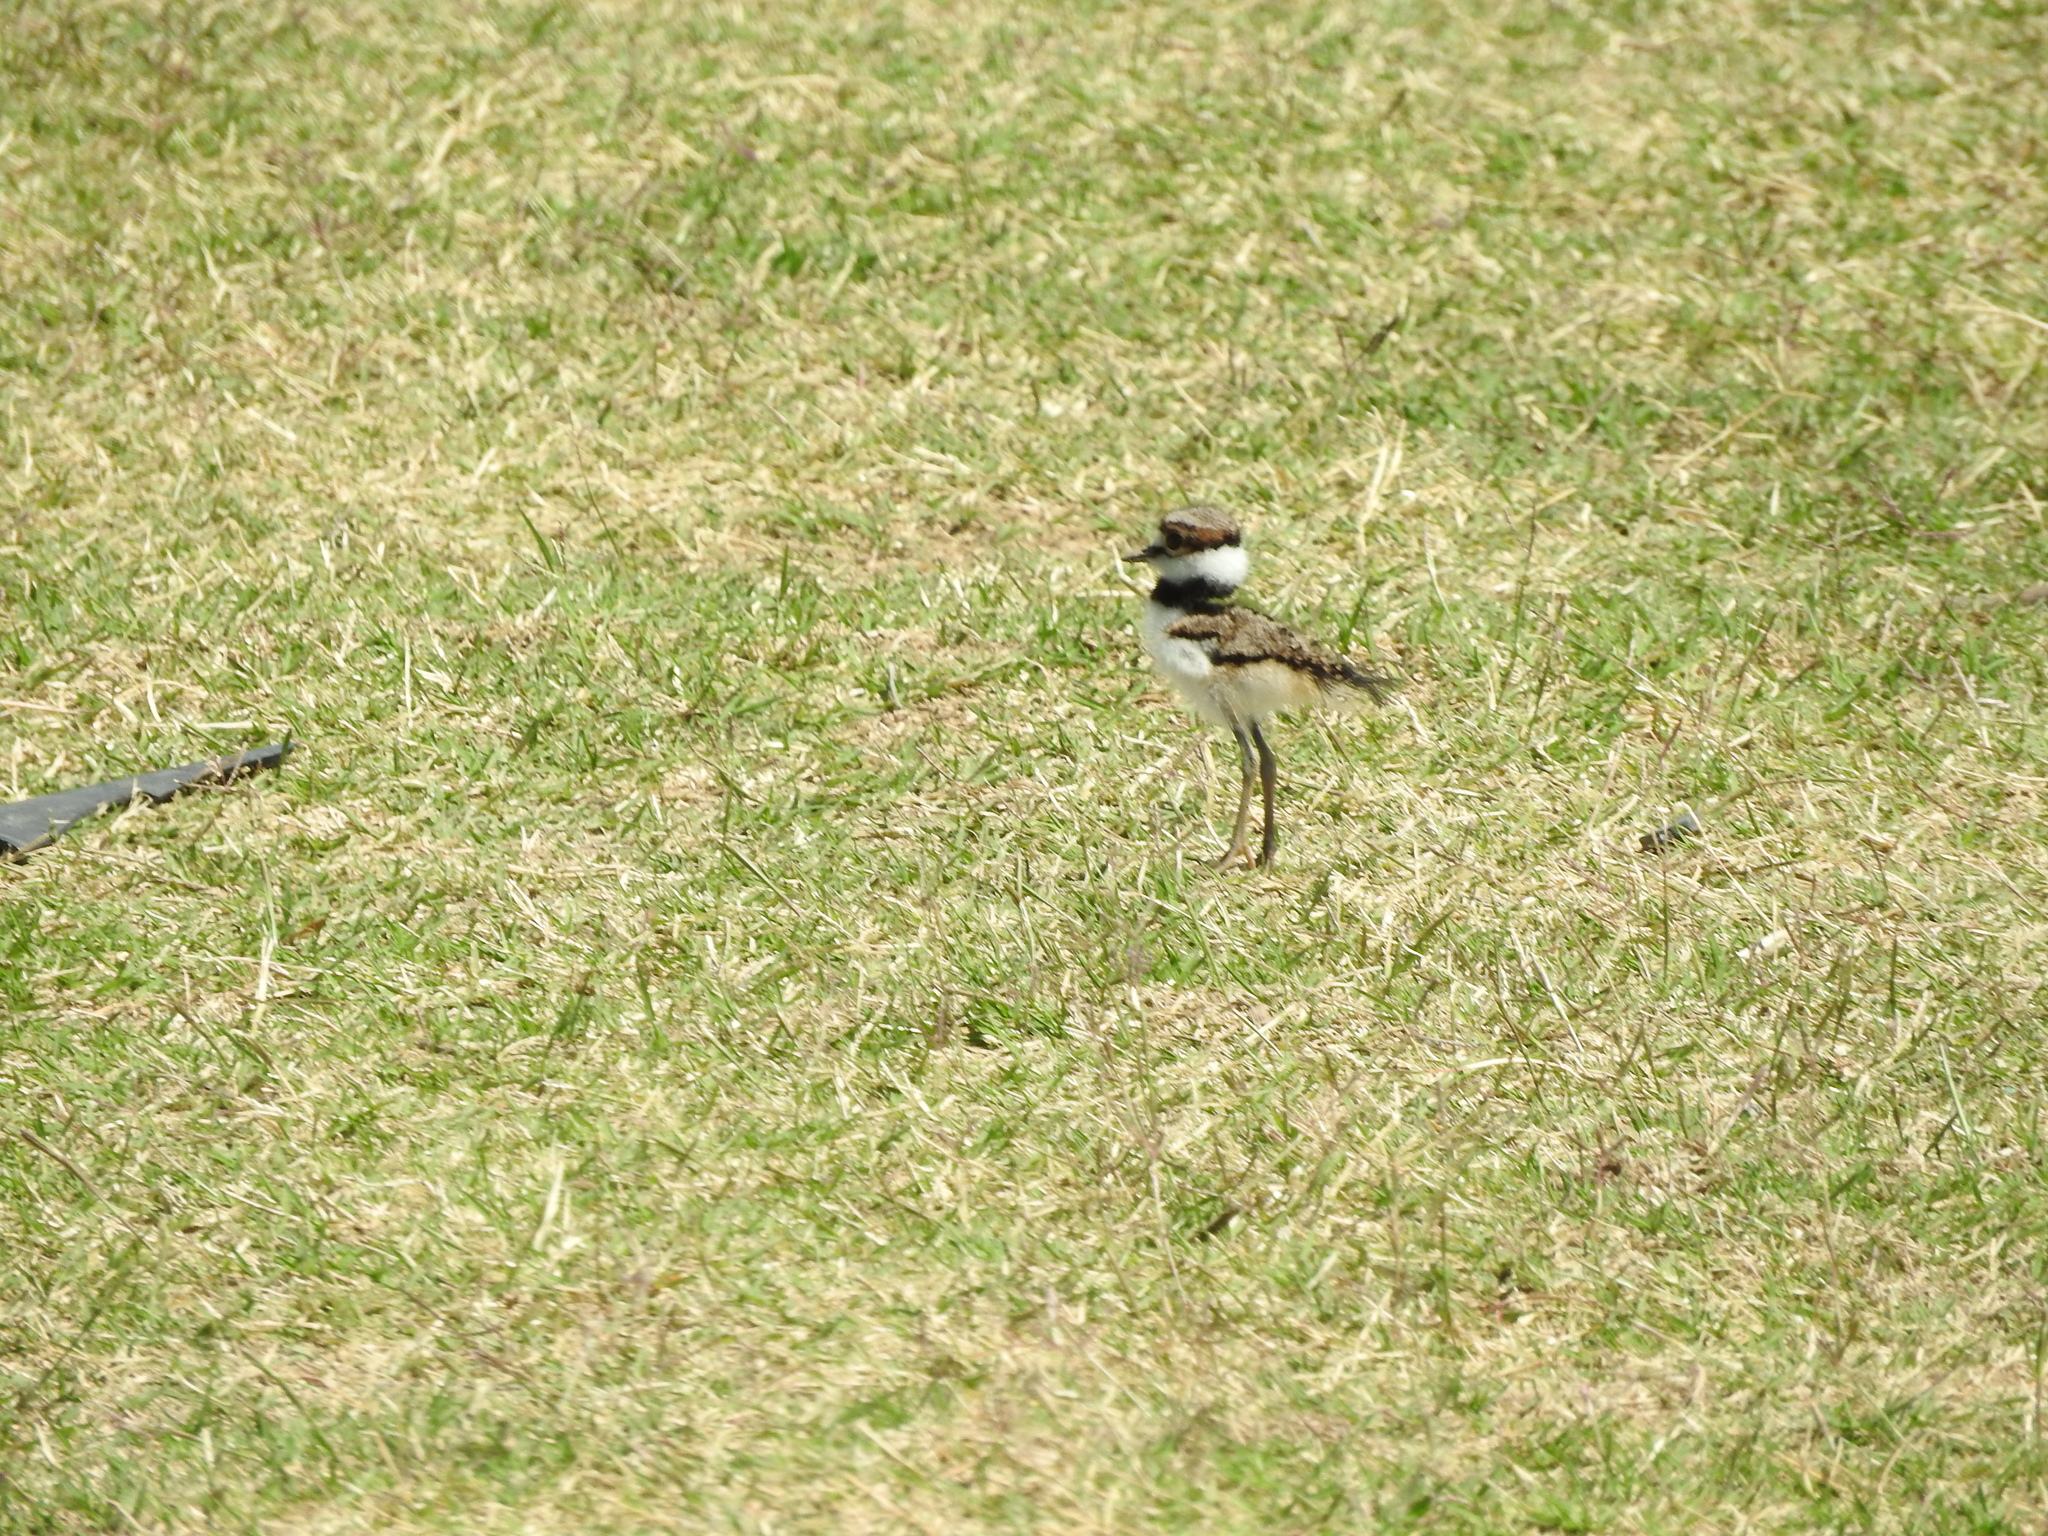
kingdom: Animalia
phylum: Chordata
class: Aves
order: Charadriiformes
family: Charadriidae
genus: Charadrius
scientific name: Charadrius vociferus
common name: Killdeer
